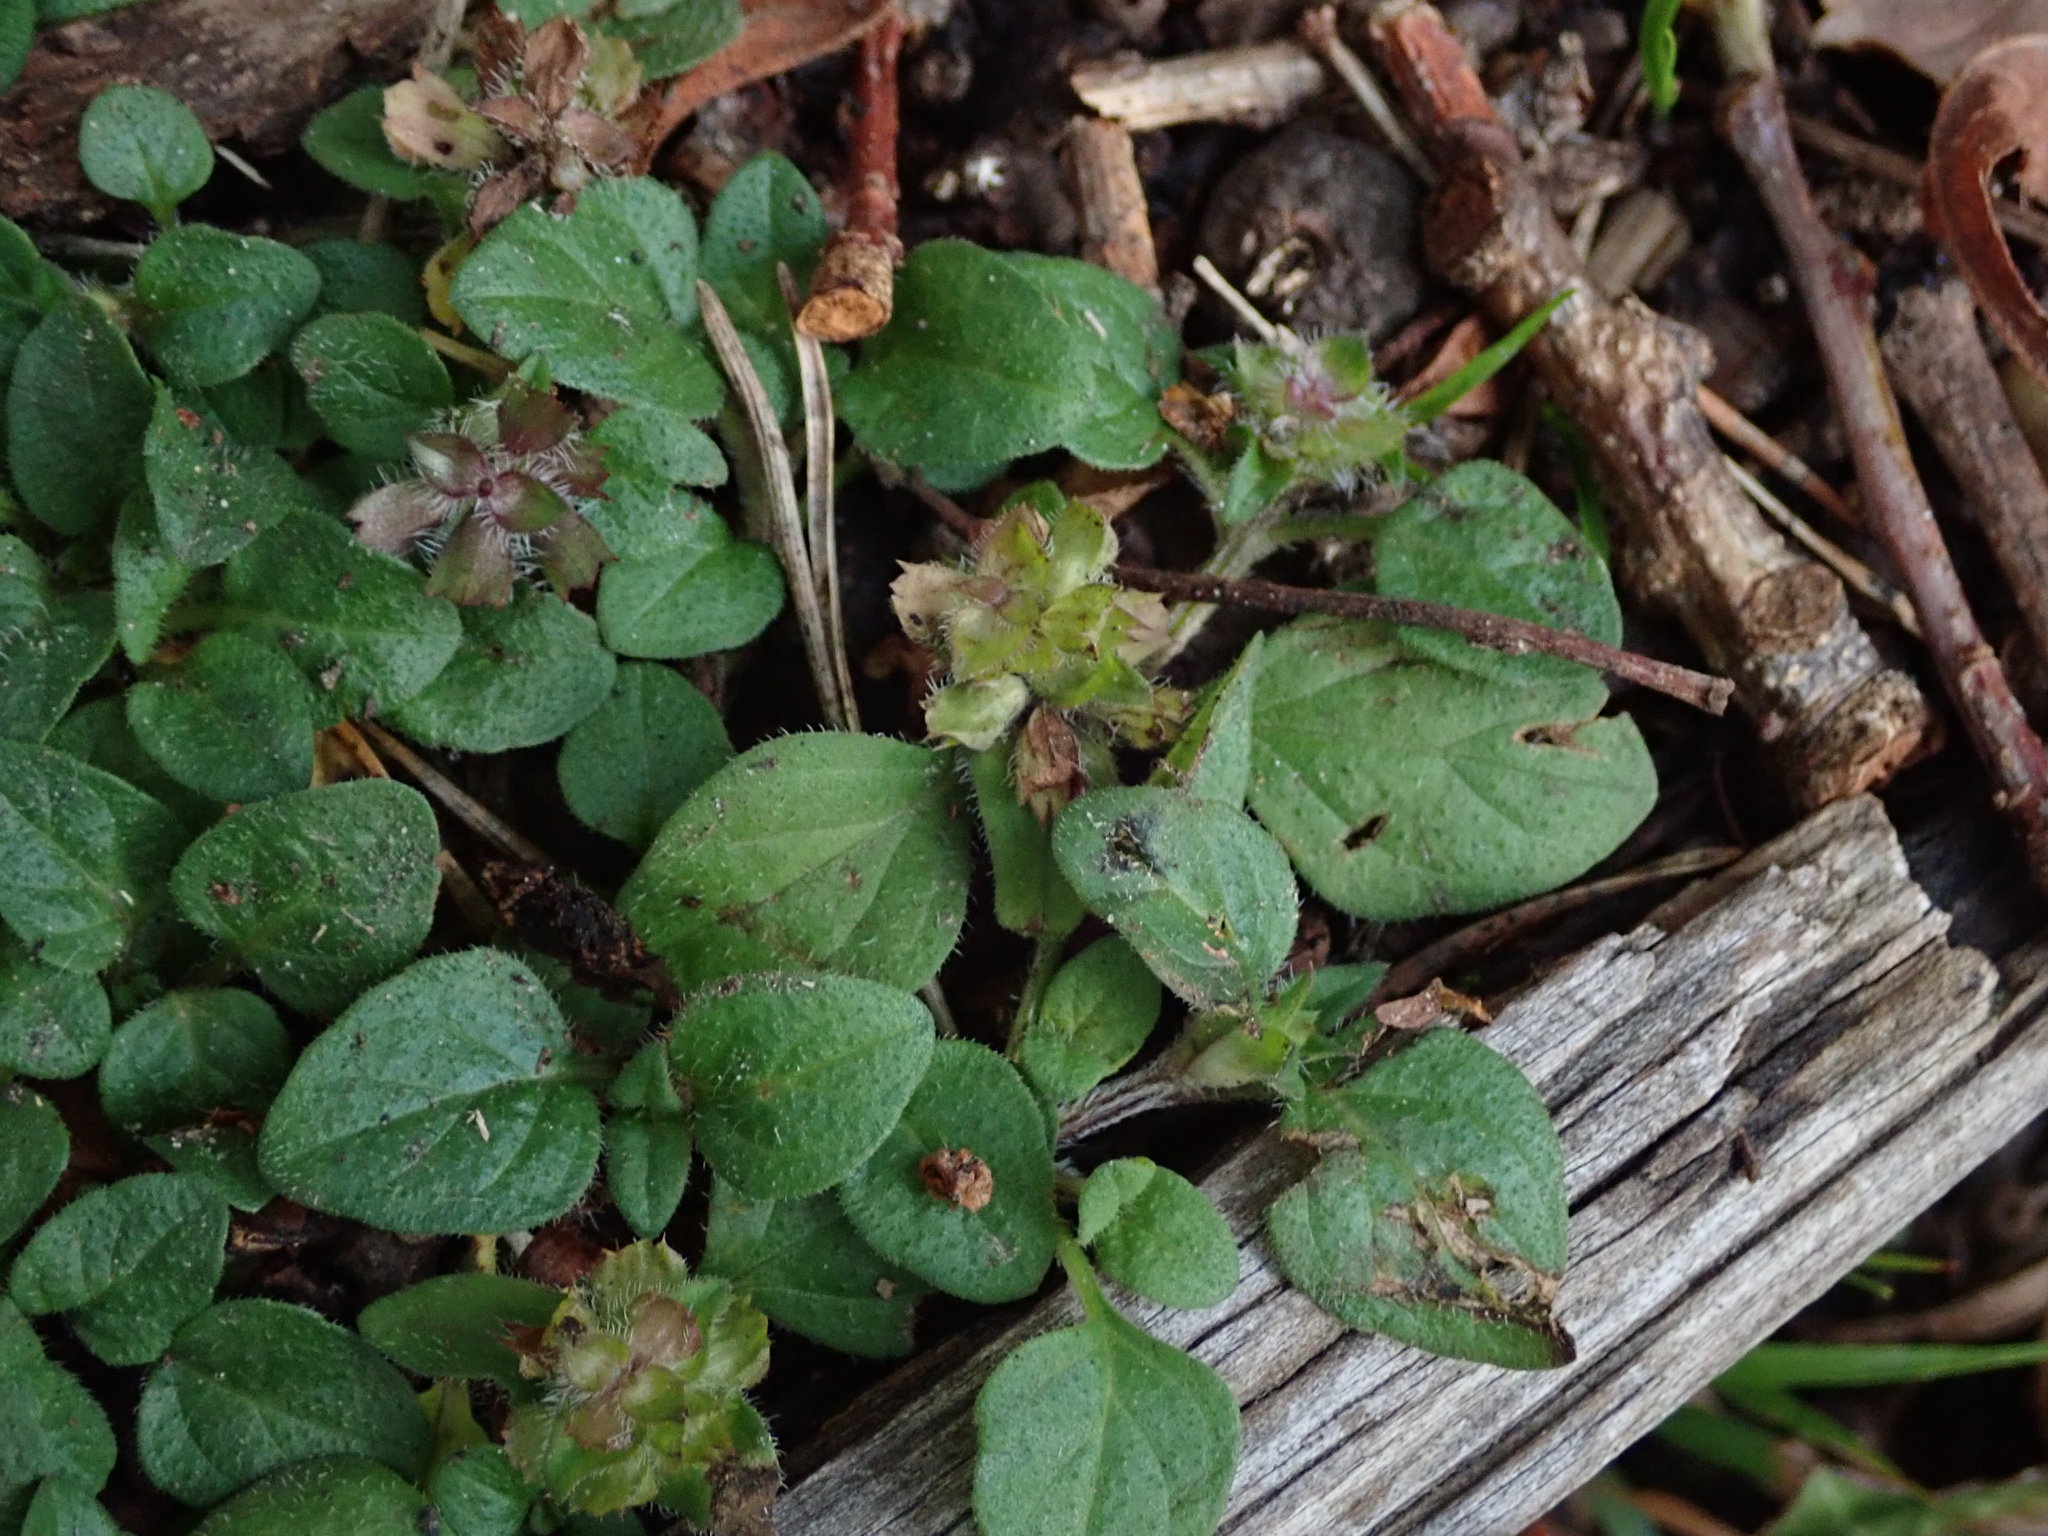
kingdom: Plantae
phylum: Tracheophyta
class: Magnoliopsida
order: Lamiales
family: Lamiaceae
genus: Prunella
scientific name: Prunella vulgaris
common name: Heal-all
